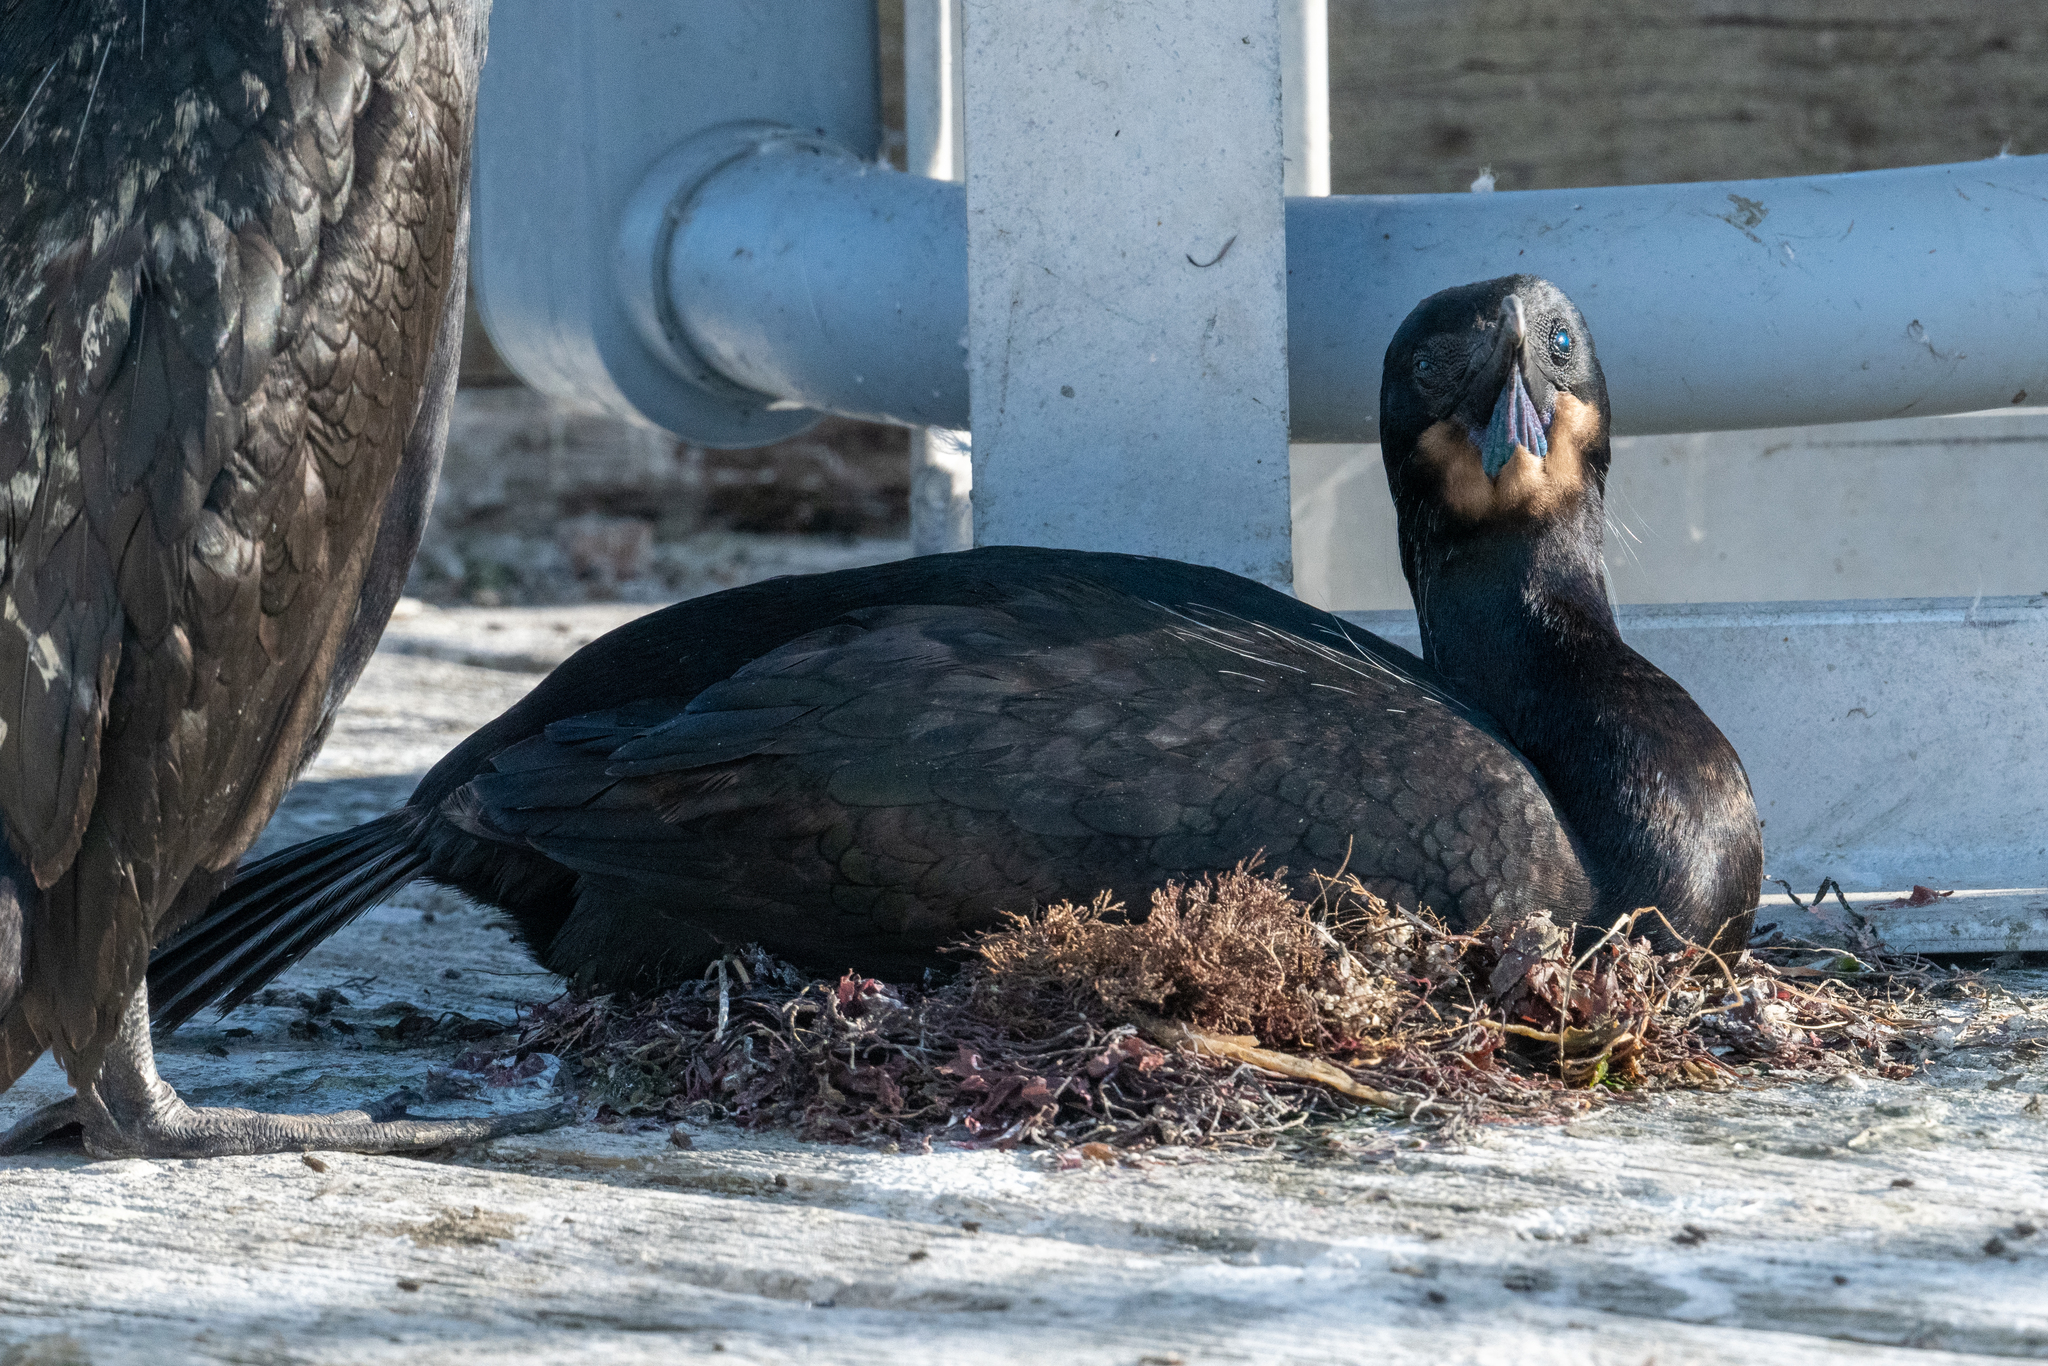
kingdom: Animalia
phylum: Chordata
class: Aves
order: Suliformes
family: Phalacrocoracidae
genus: Urile
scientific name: Urile penicillatus
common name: Brandt's cormorant
